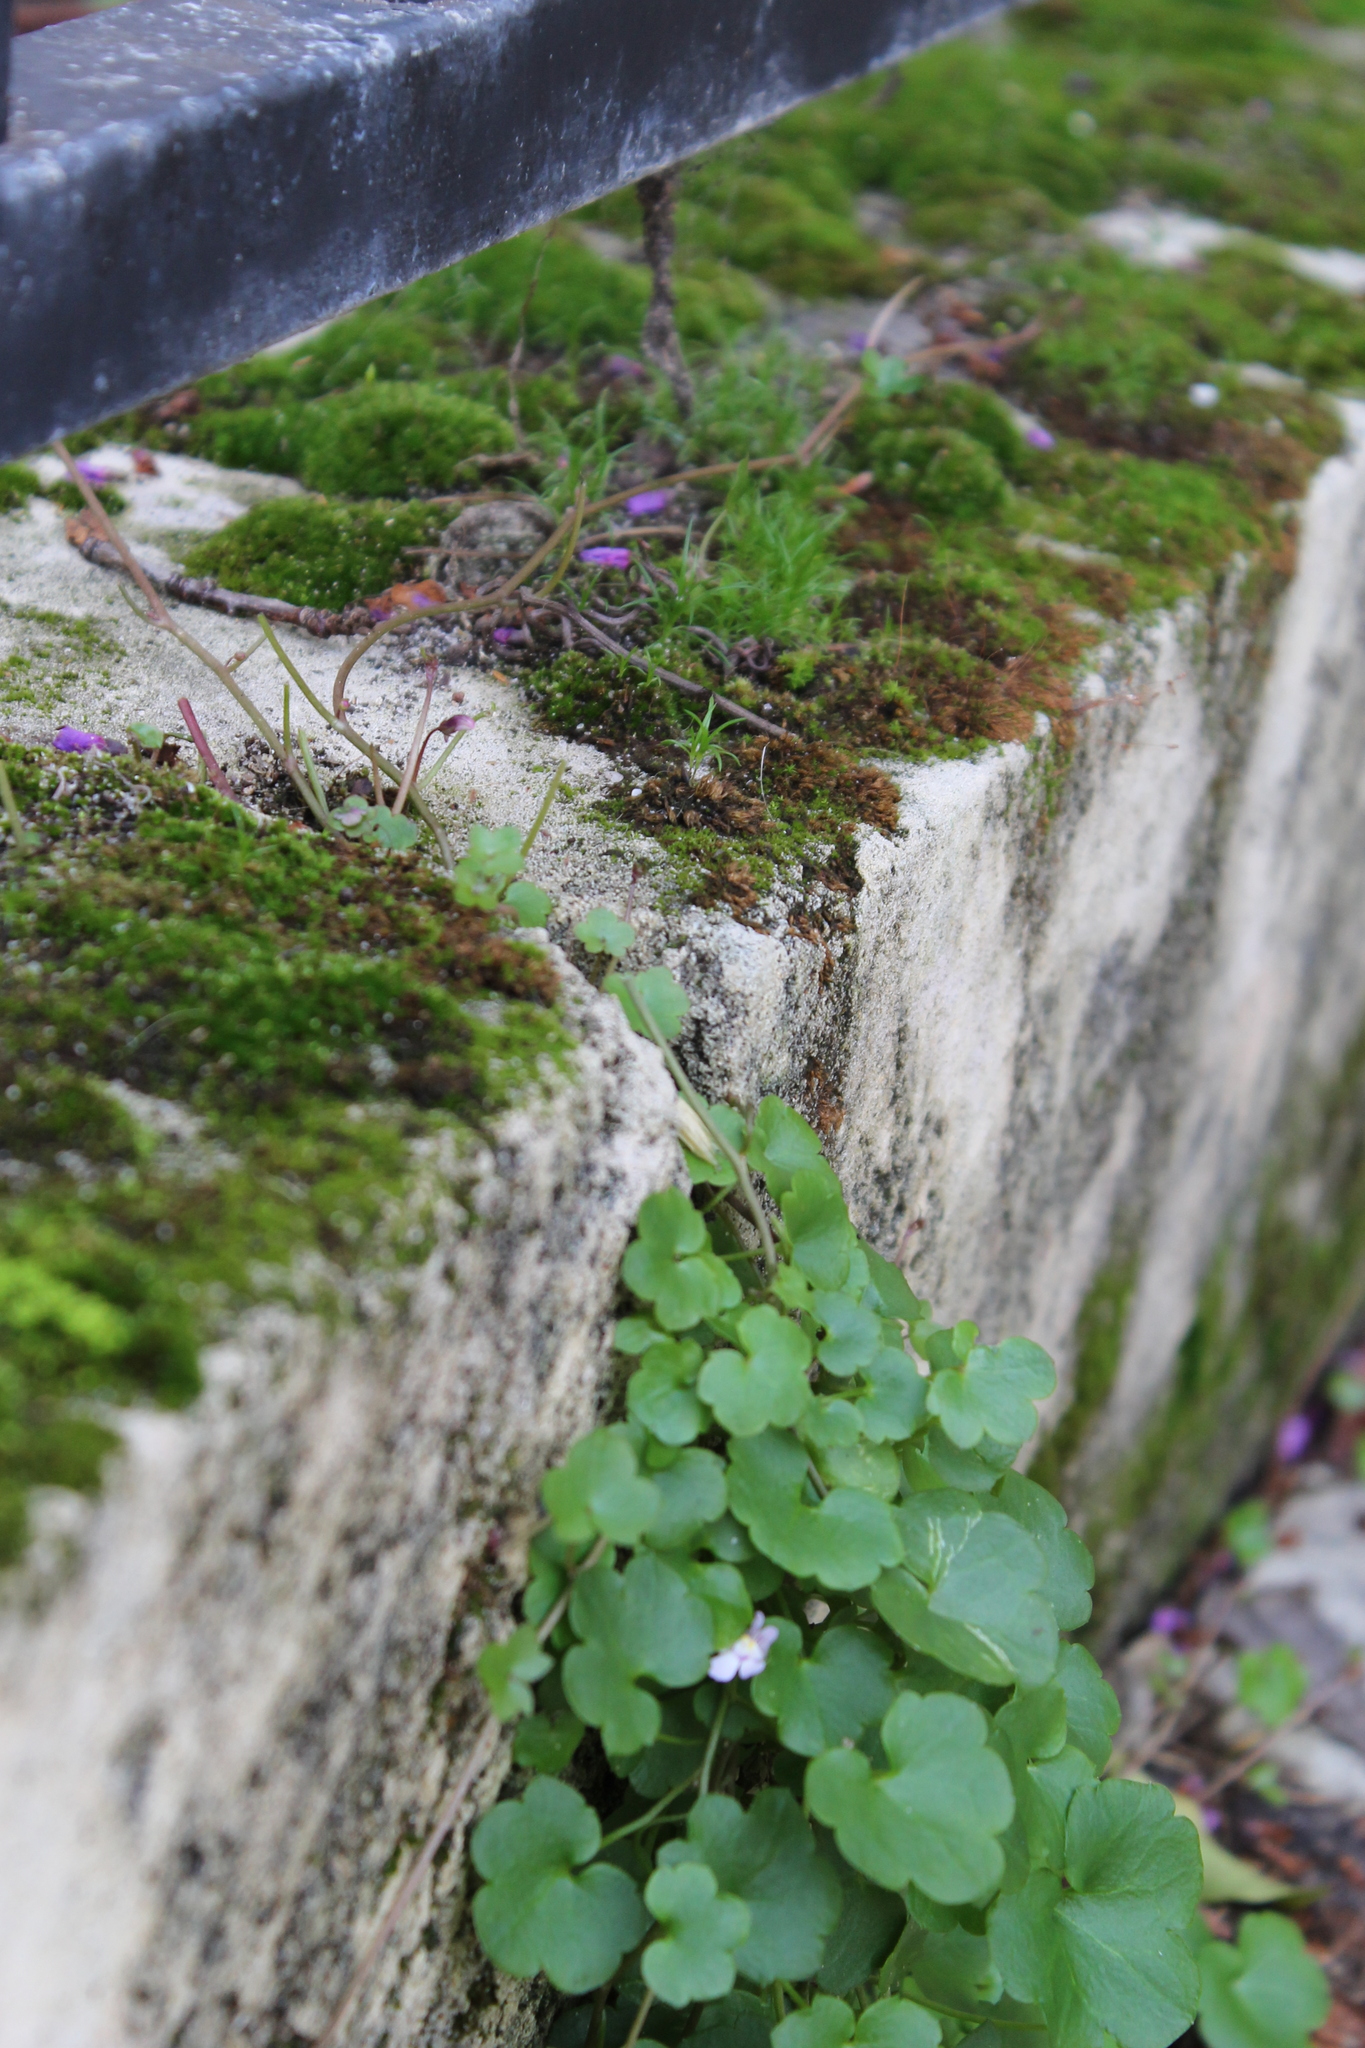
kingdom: Plantae
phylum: Tracheophyta
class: Magnoliopsida
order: Lamiales
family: Plantaginaceae
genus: Cymbalaria
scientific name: Cymbalaria muralis
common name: Ivy-leaved toadflax
